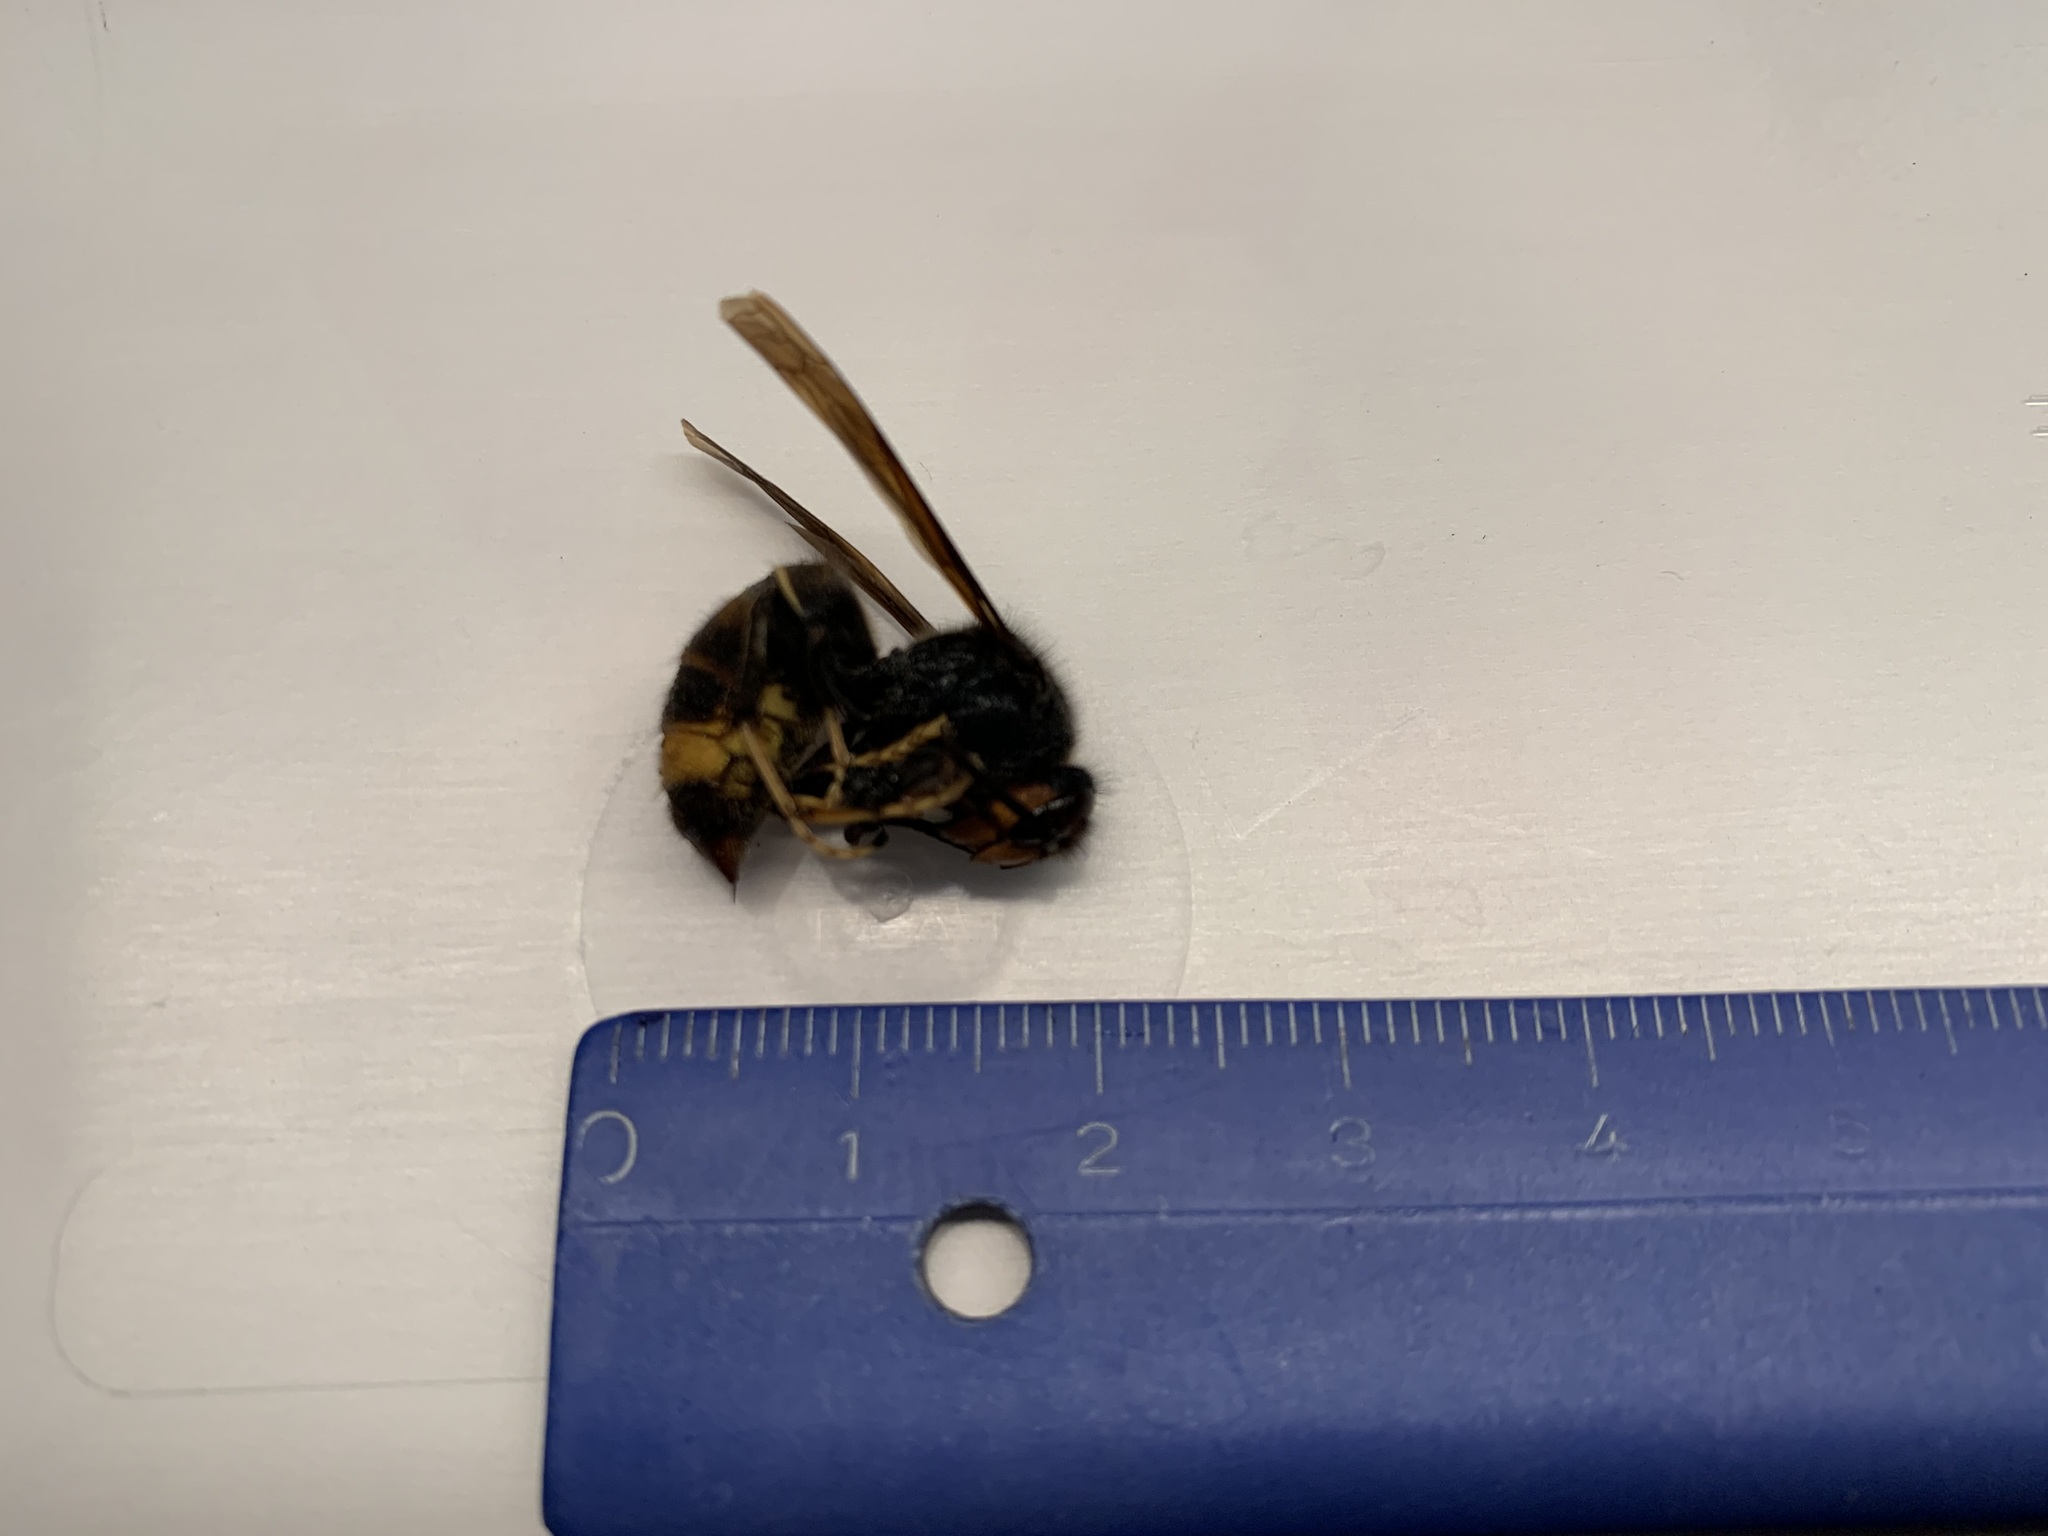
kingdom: Animalia
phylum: Arthropoda
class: Insecta
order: Hymenoptera
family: Vespidae
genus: Vespa
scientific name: Vespa velutina
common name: Asian hornet
